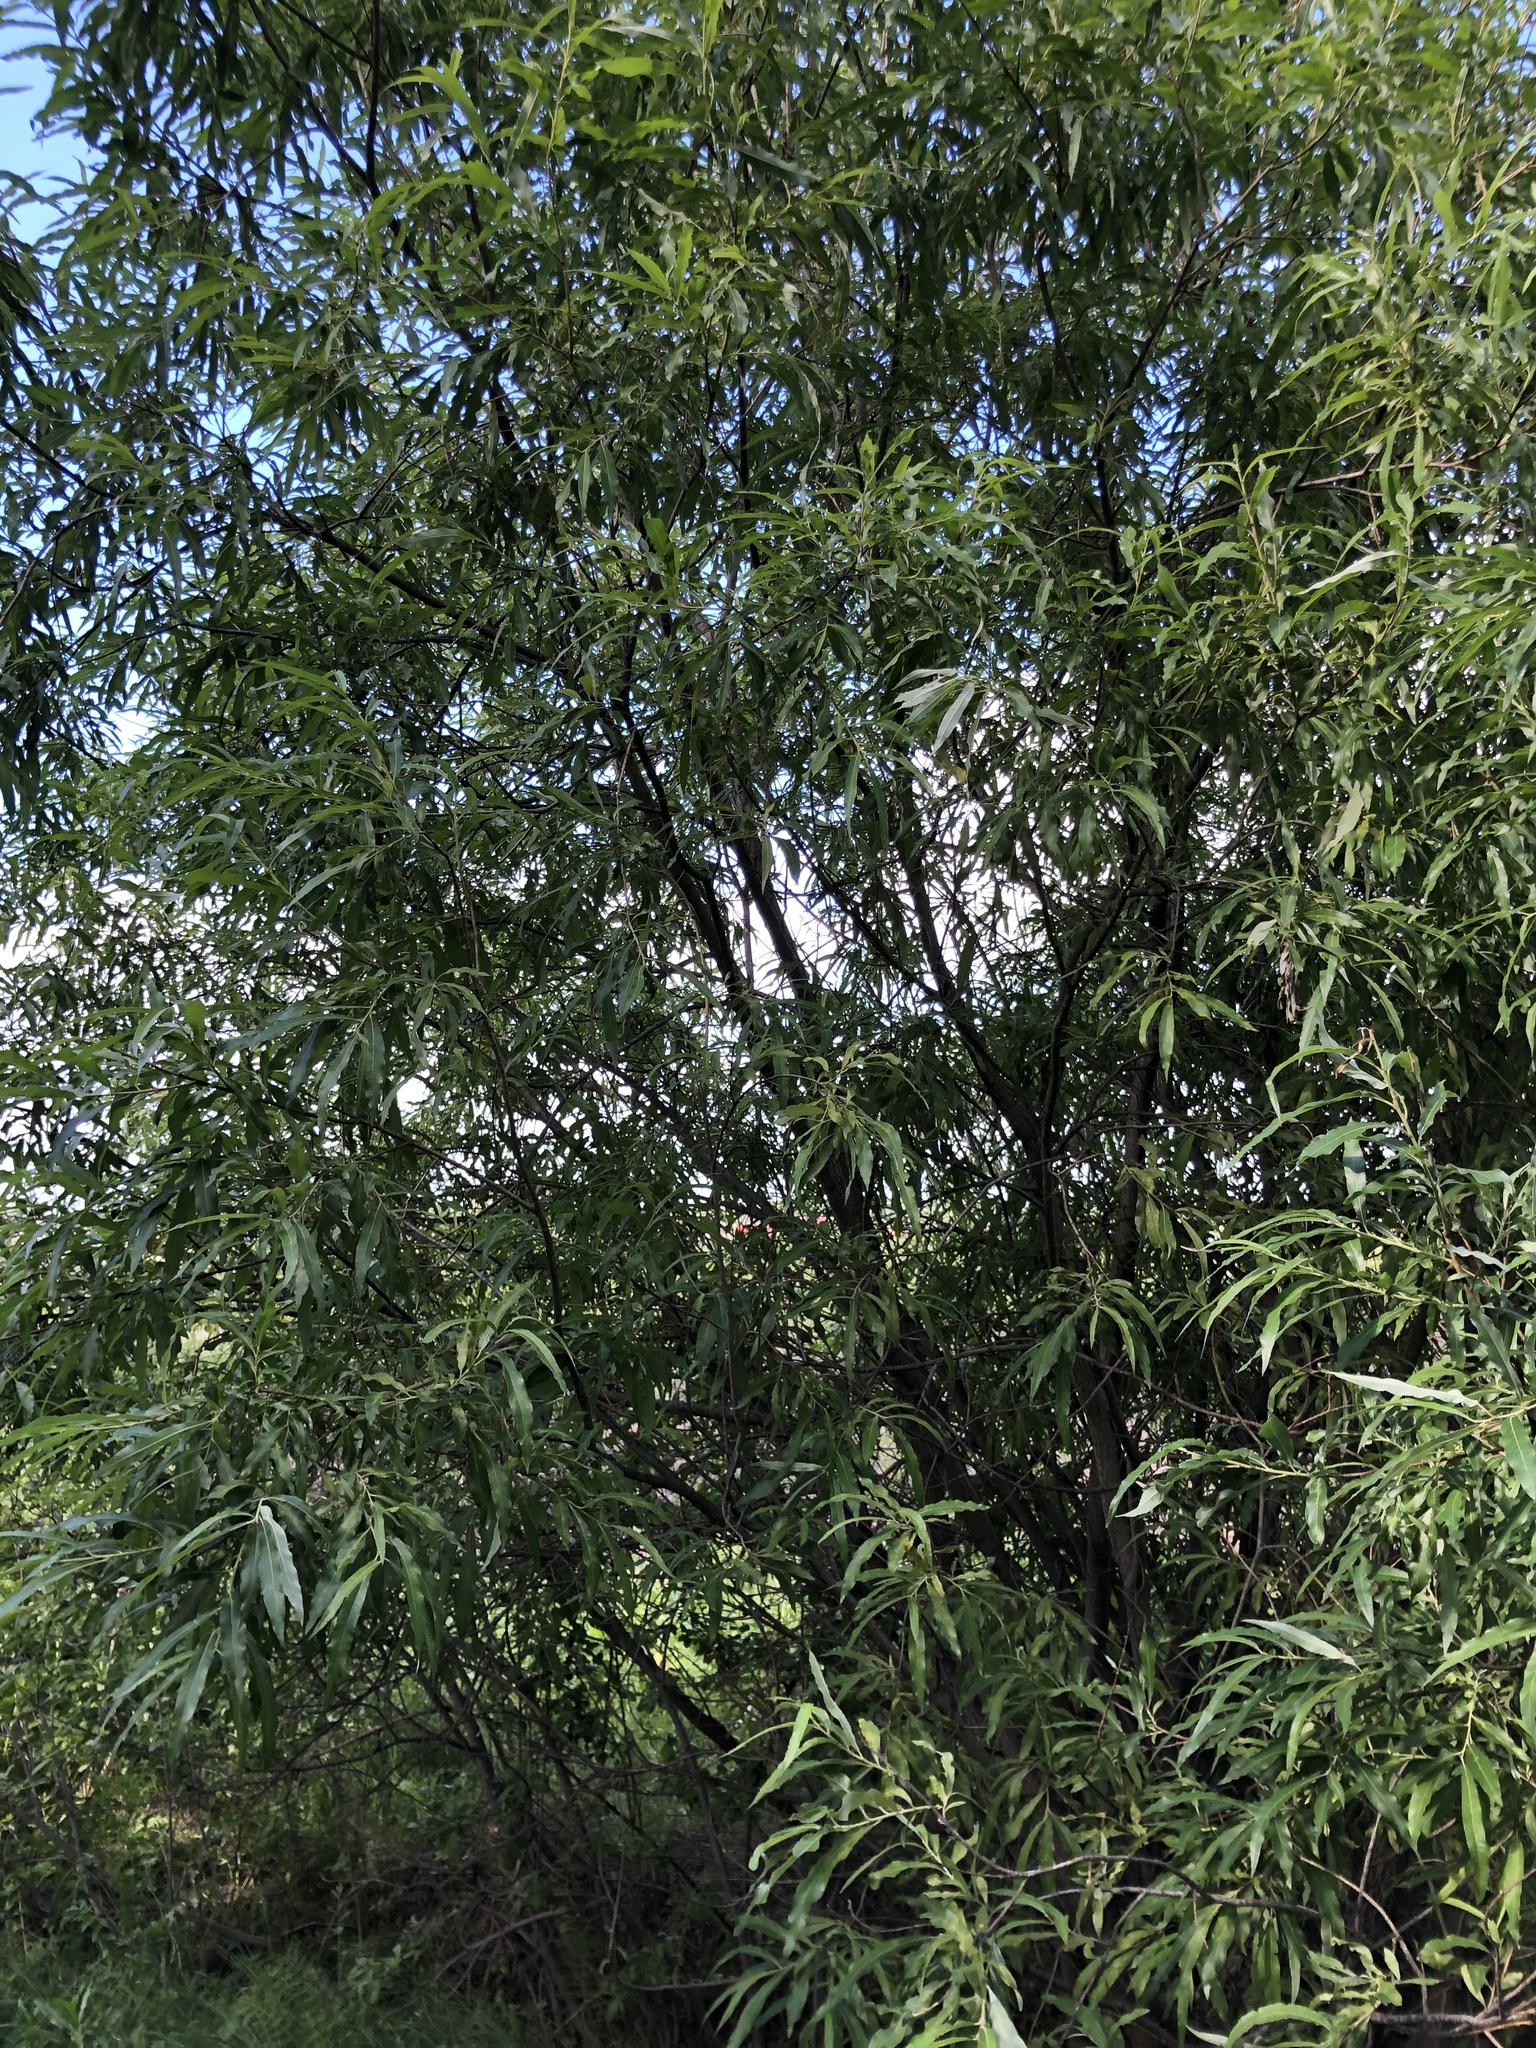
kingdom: Plantae
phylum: Tracheophyta
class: Magnoliopsida
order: Malpighiales
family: Salicaceae
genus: Salix
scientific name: Salix gmelinii
